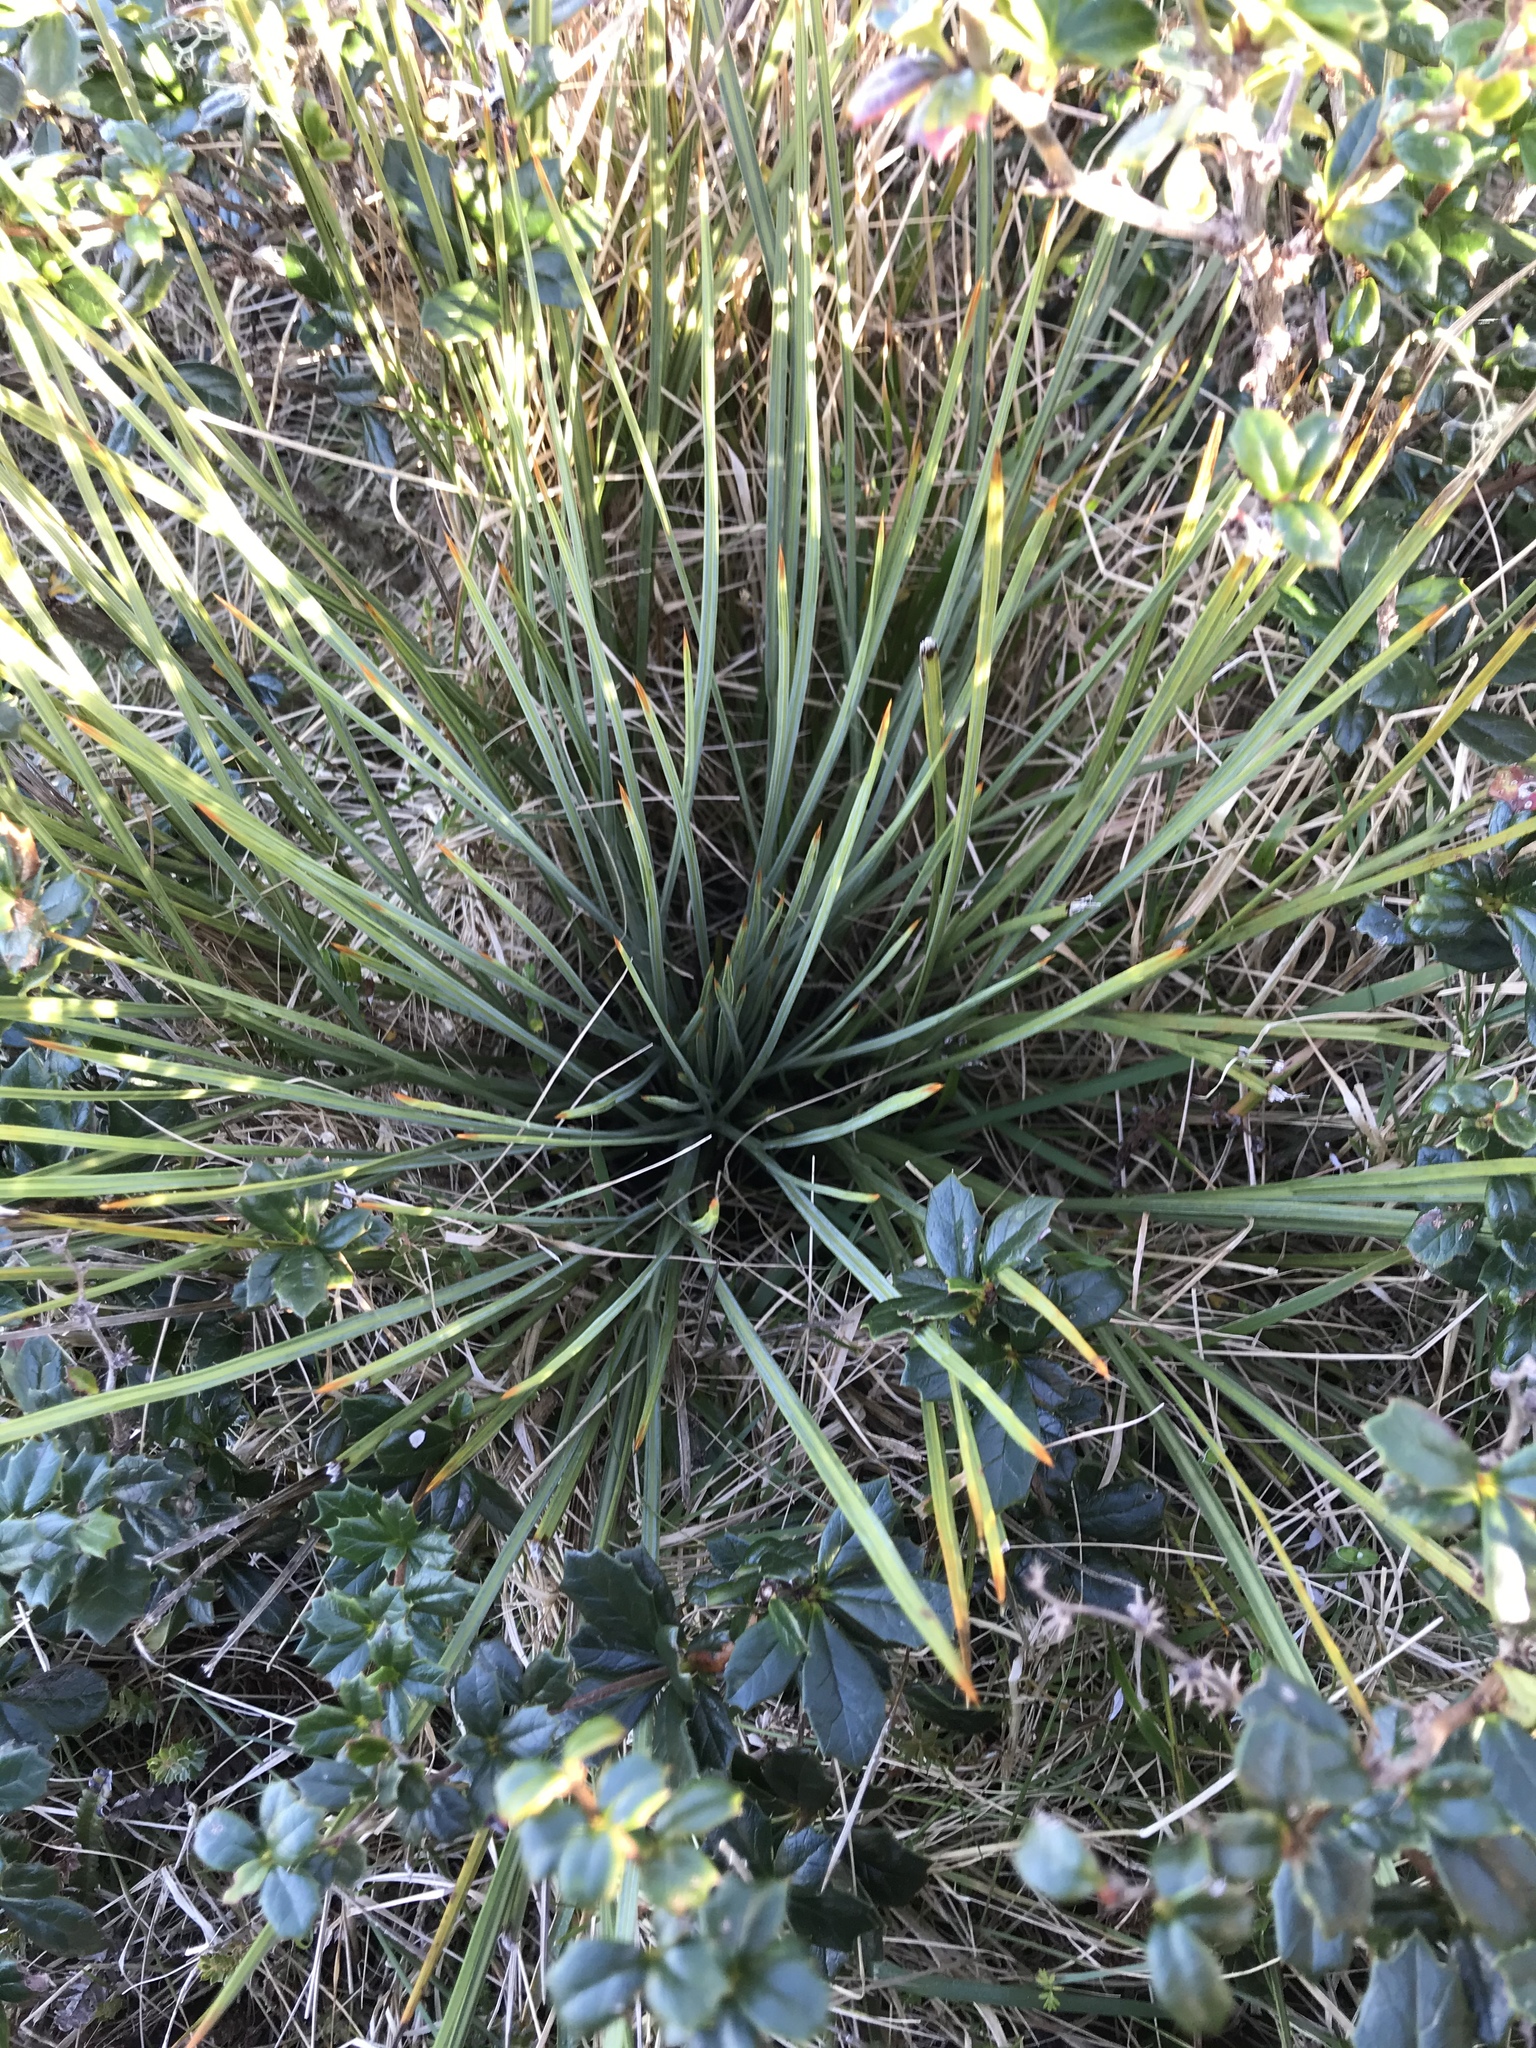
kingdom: Plantae
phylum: Tracheophyta
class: Magnoliopsida
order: Apiales
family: Apiaceae
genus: Aciphylla
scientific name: Aciphylla squarrosa
